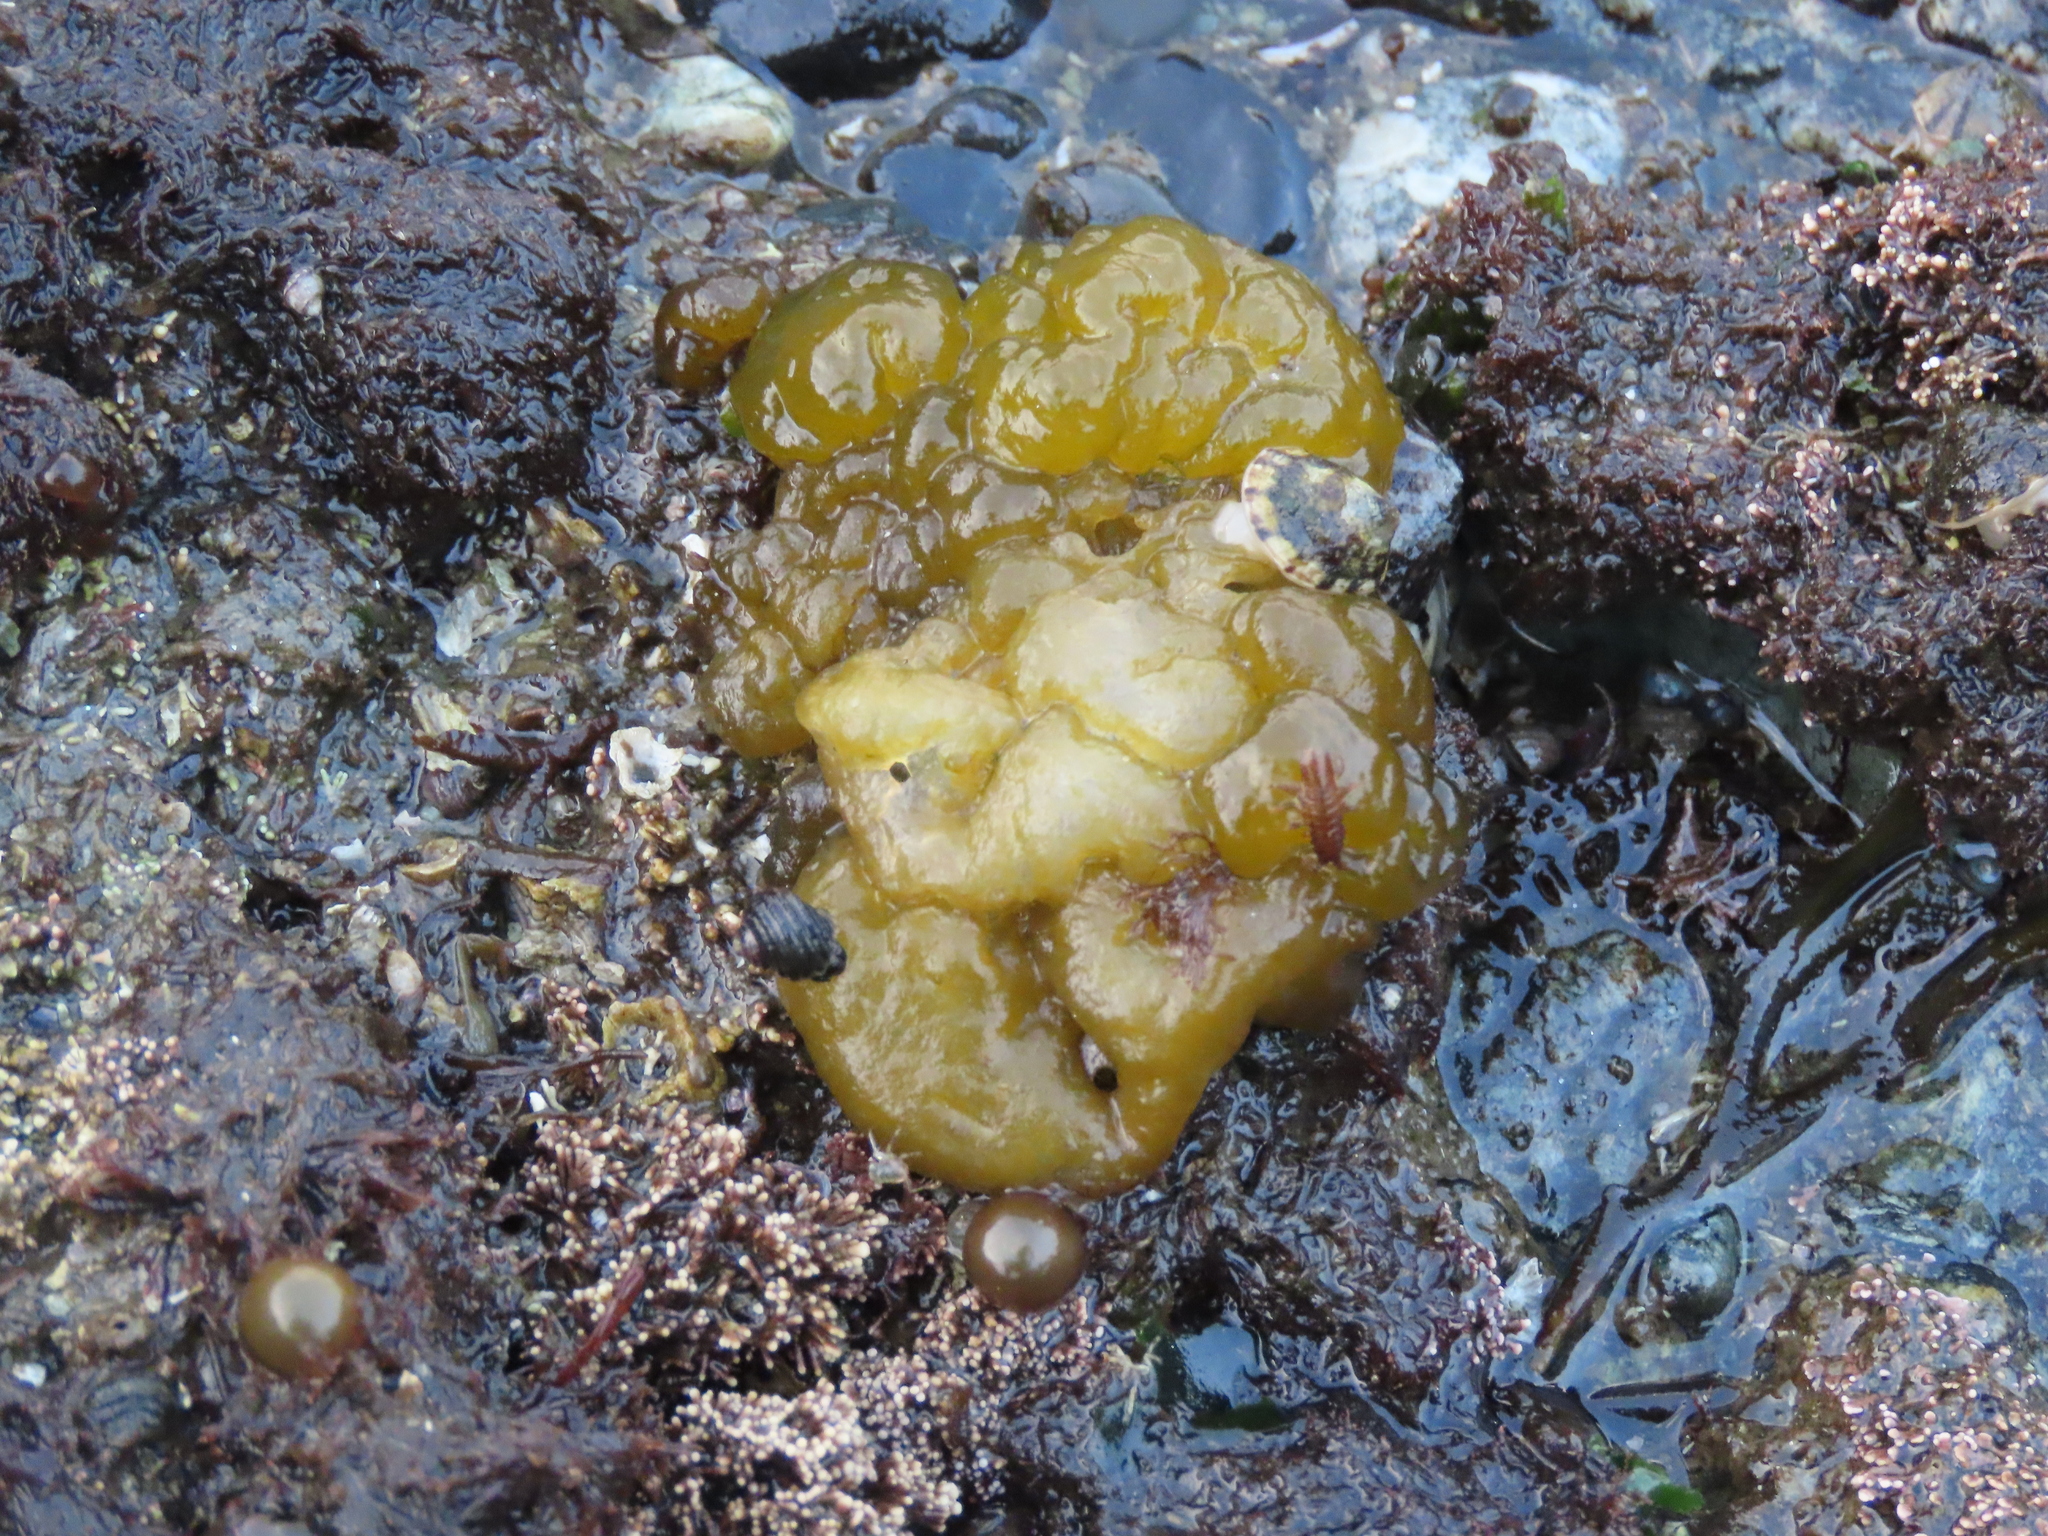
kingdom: Chromista
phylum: Ochrophyta
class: Phaeophyceae
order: Ectocarpales
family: Chordariaceae
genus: Leathesia
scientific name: Leathesia marina
